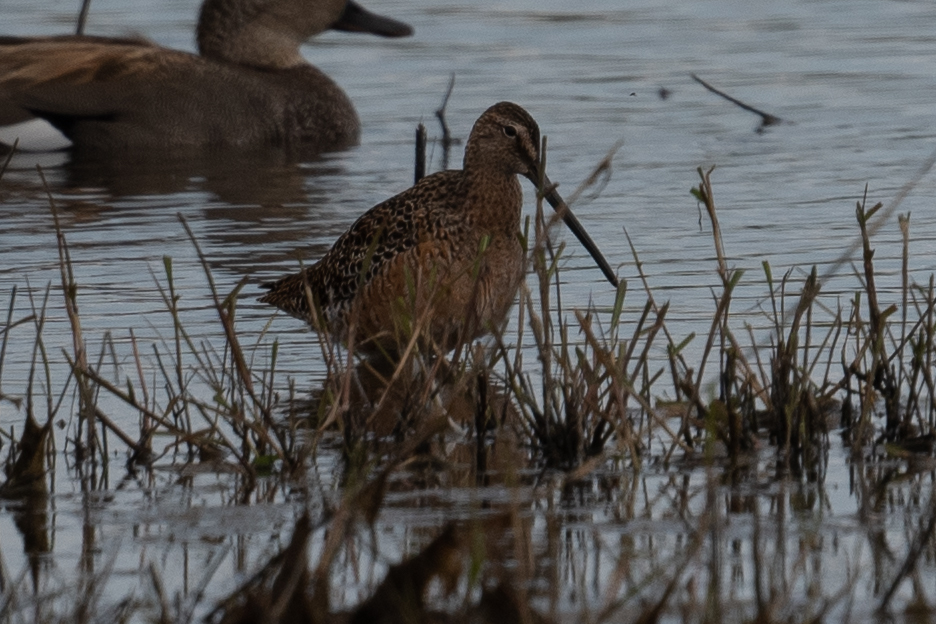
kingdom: Animalia
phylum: Chordata
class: Aves
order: Charadriiformes
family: Scolopacidae
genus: Limnodromus
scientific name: Limnodromus scolopaceus
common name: Long-billed dowitcher
